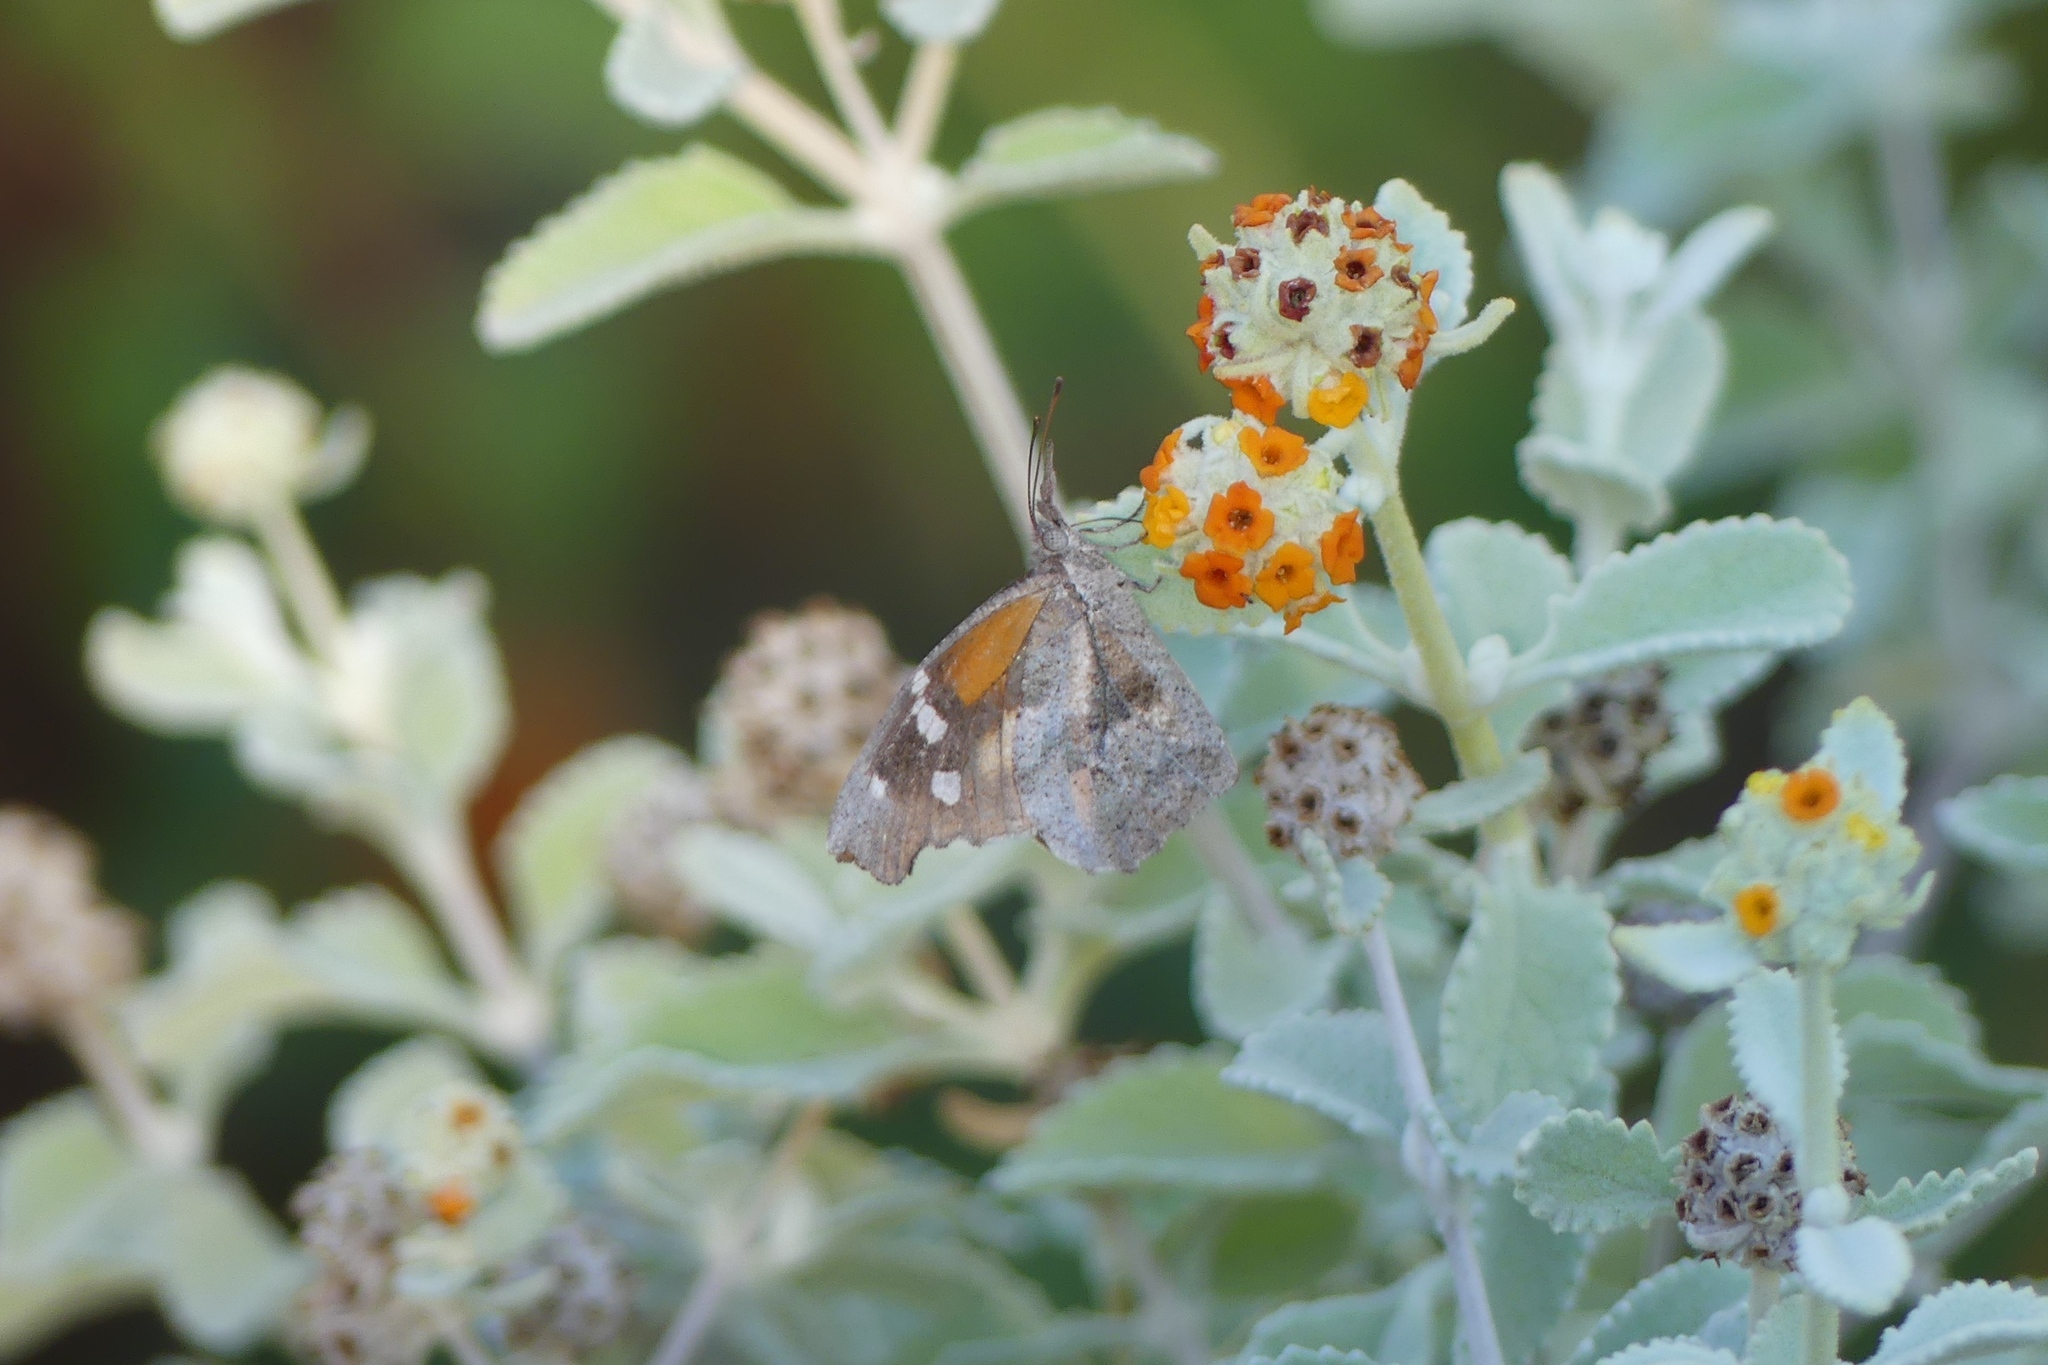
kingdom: Animalia
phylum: Arthropoda
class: Insecta
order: Lepidoptera
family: Nymphalidae
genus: Libytheana
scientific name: Libytheana carinenta
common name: American snout
